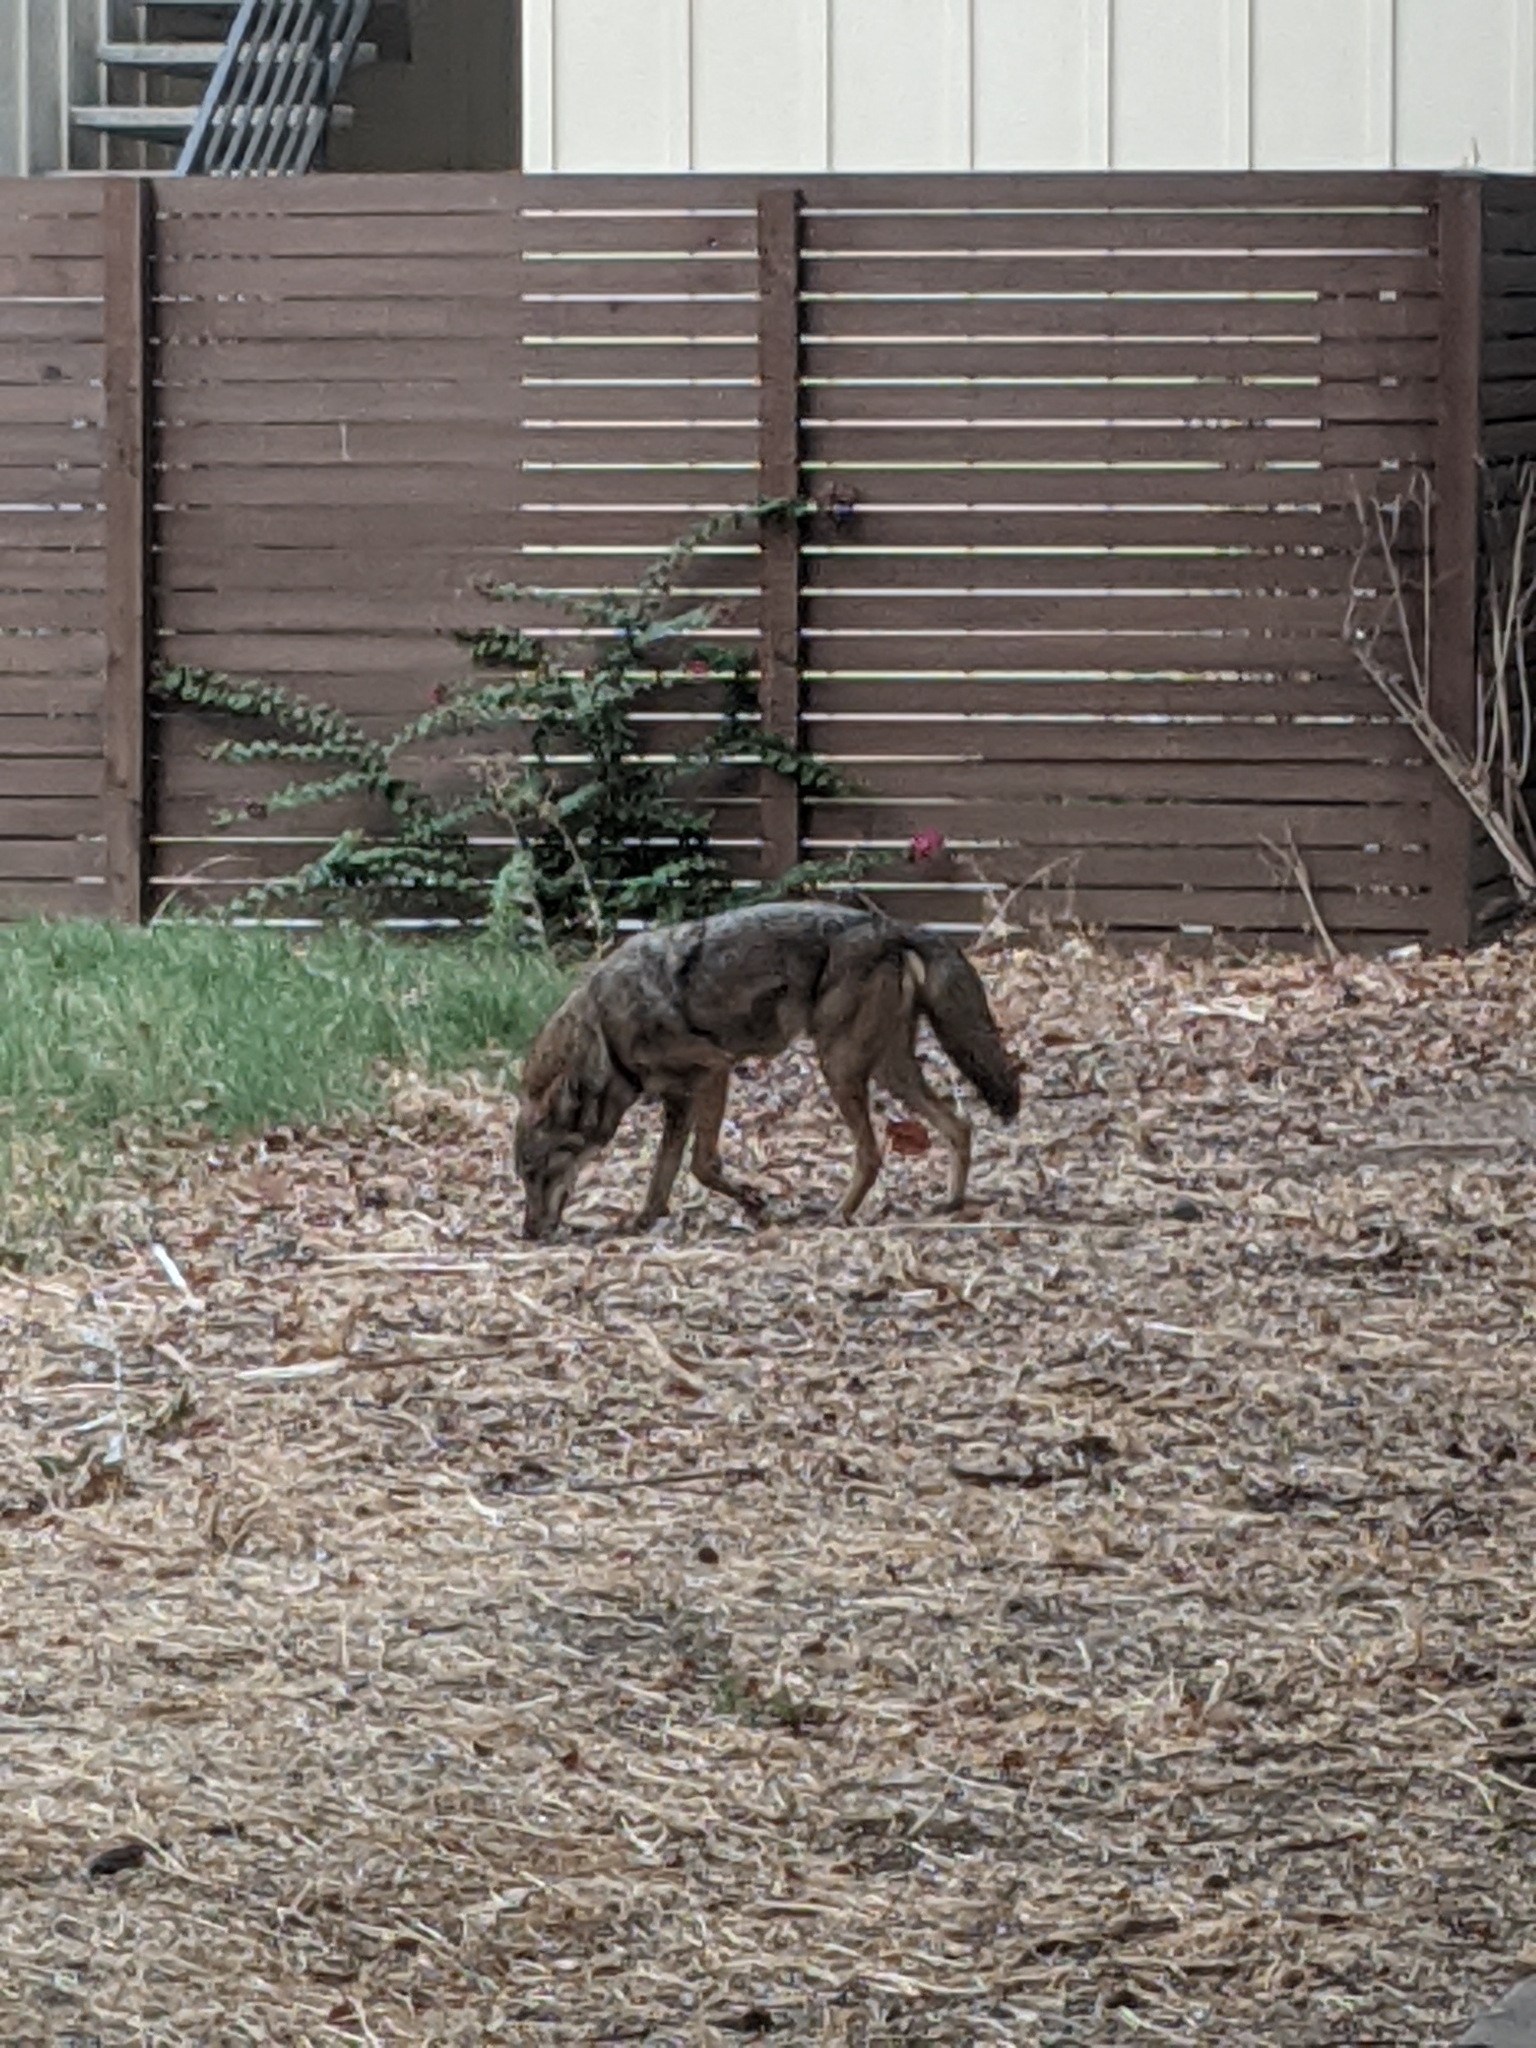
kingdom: Animalia
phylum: Chordata
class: Mammalia
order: Carnivora
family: Canidae
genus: Canis
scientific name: Canis latrans
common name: Coyote
